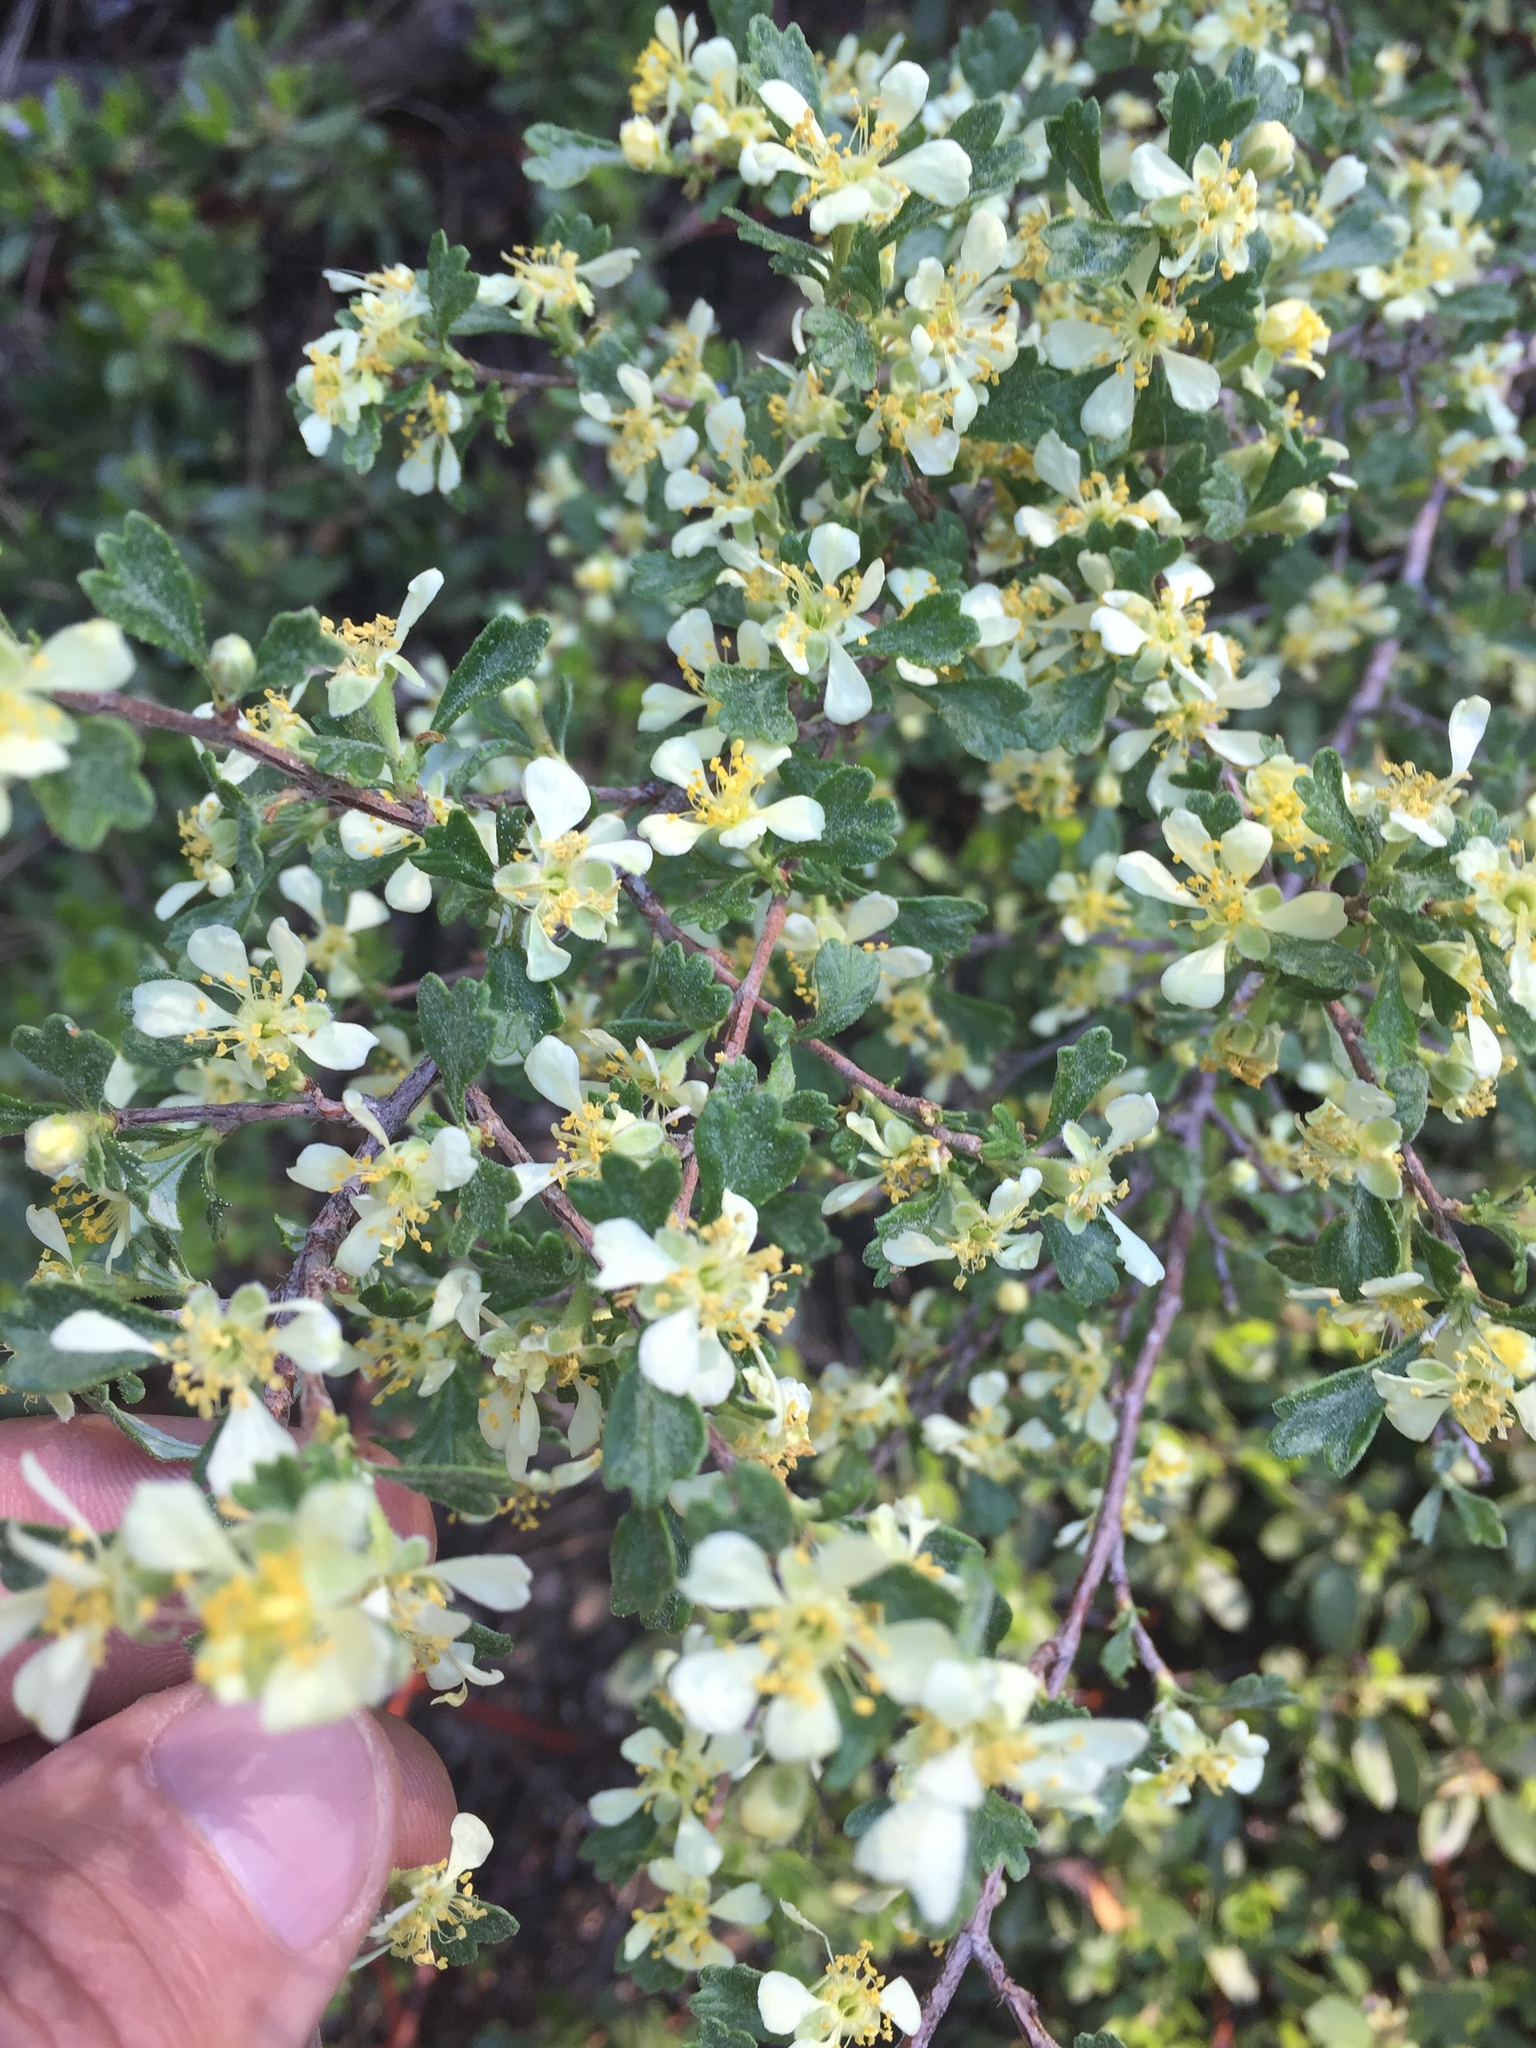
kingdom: Plantae
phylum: Tracheophyta
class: Magnoliopsida
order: Rosales
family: Rosaceae
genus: Purshia
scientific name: Purshia tridentata
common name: Antelope bitterbrush
